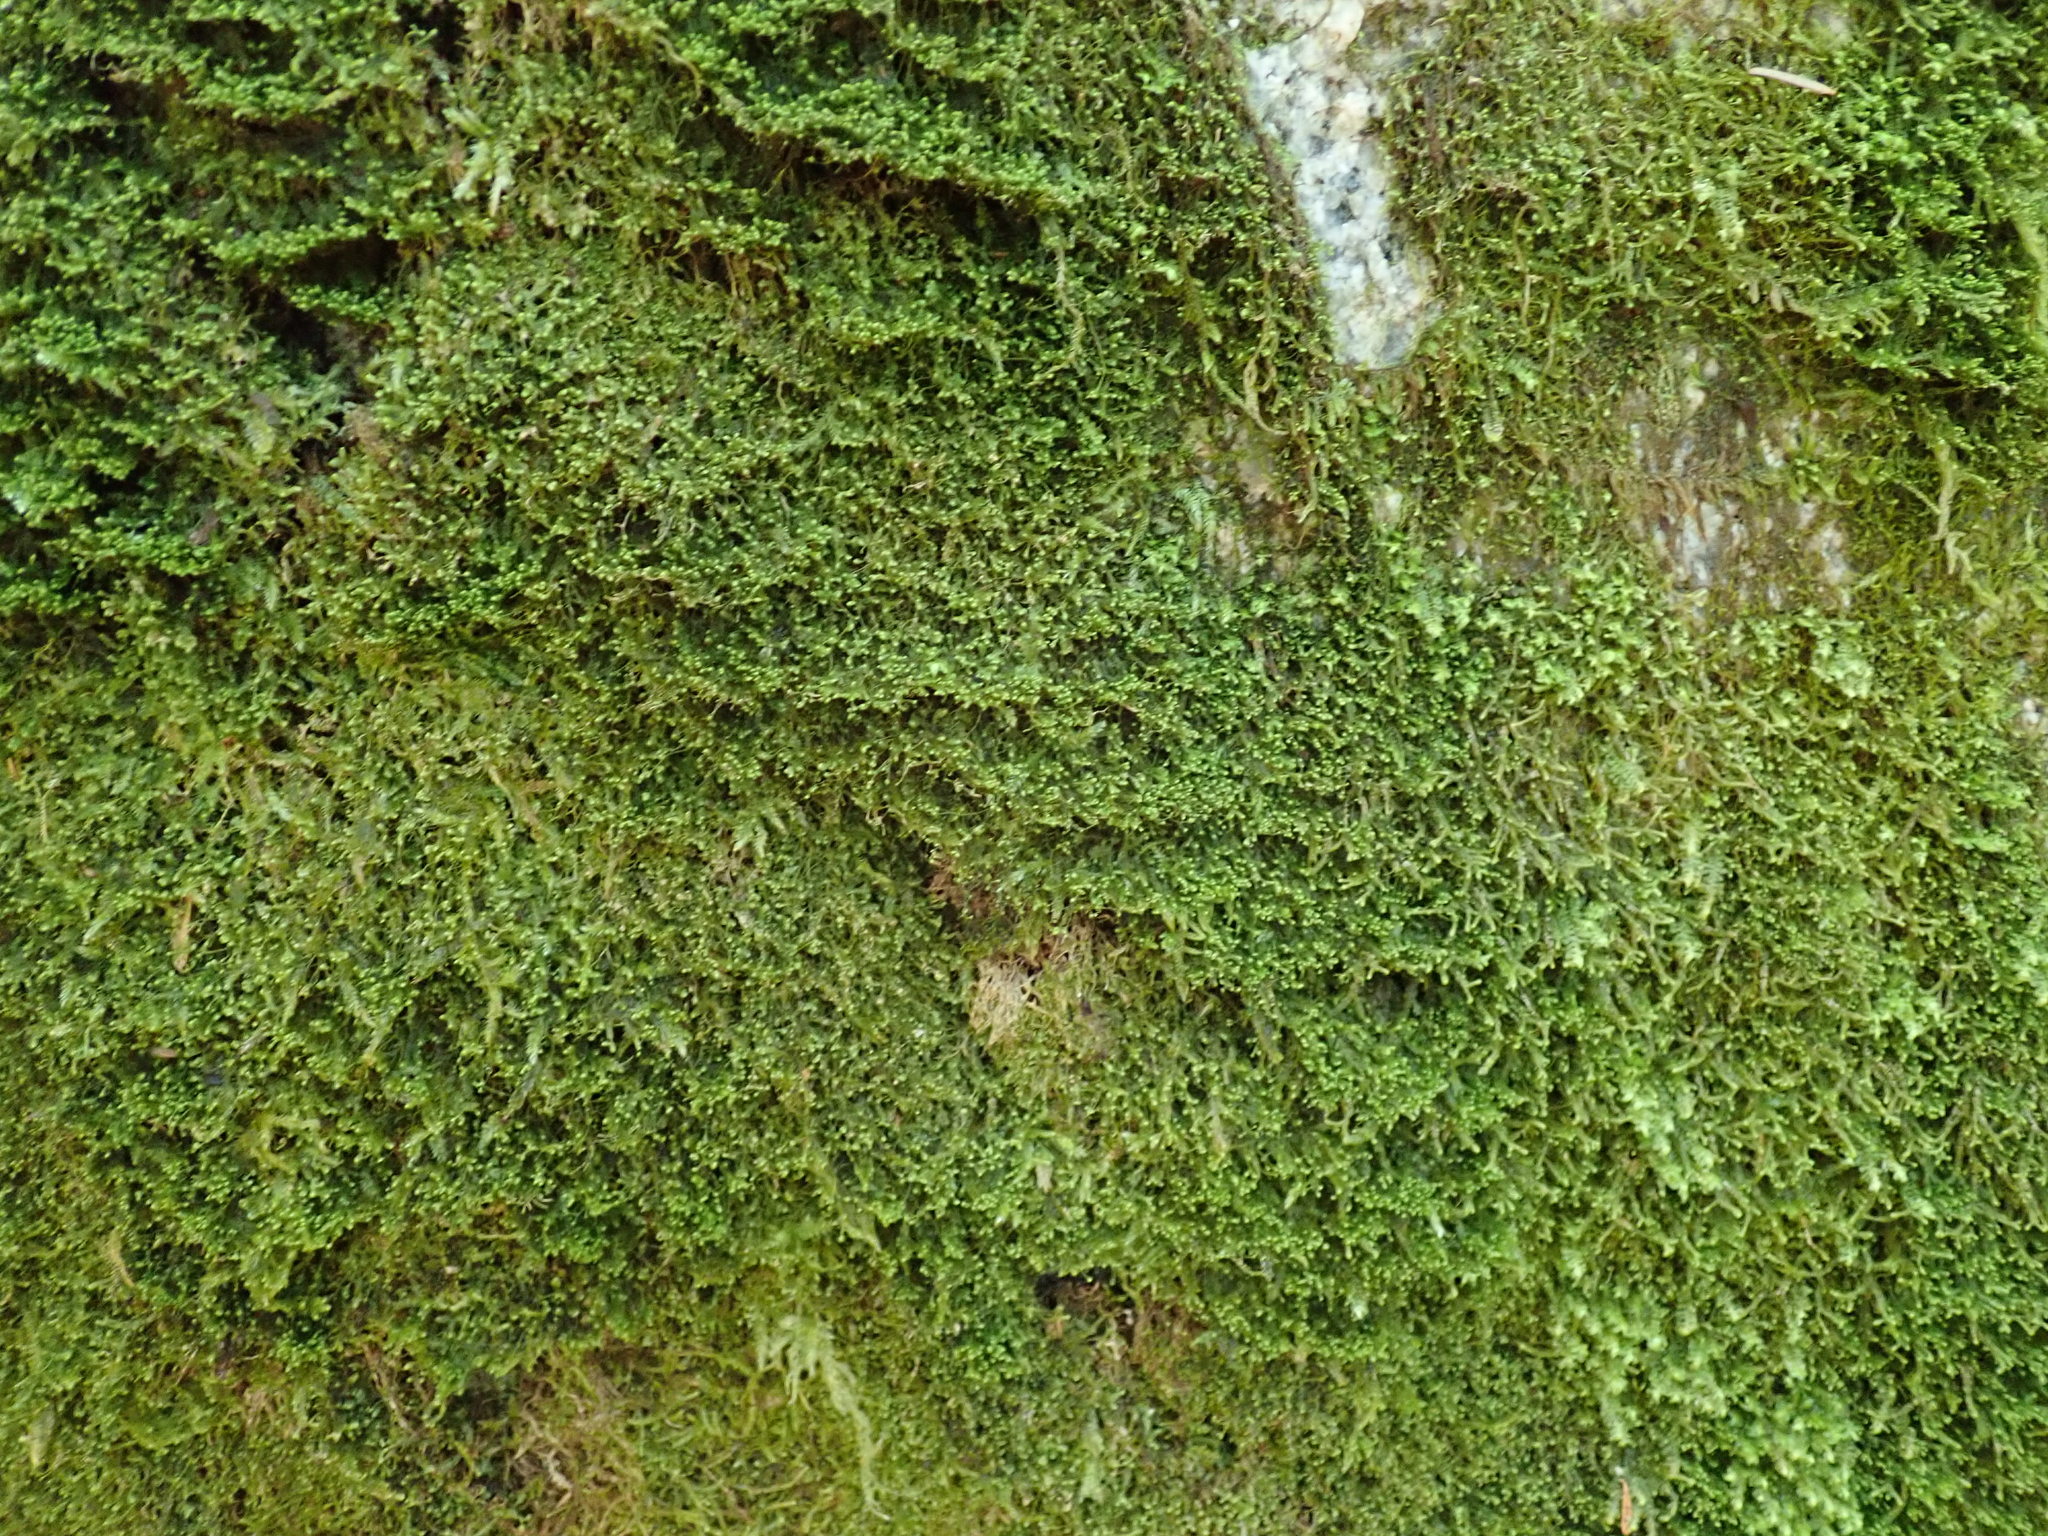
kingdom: Plantae
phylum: Marchantiophyta
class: Jungermanniopsida
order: Jungermanniales
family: Lepidoziaceae
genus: Bazzania
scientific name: Bazzania denudata
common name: Naked whipwort
